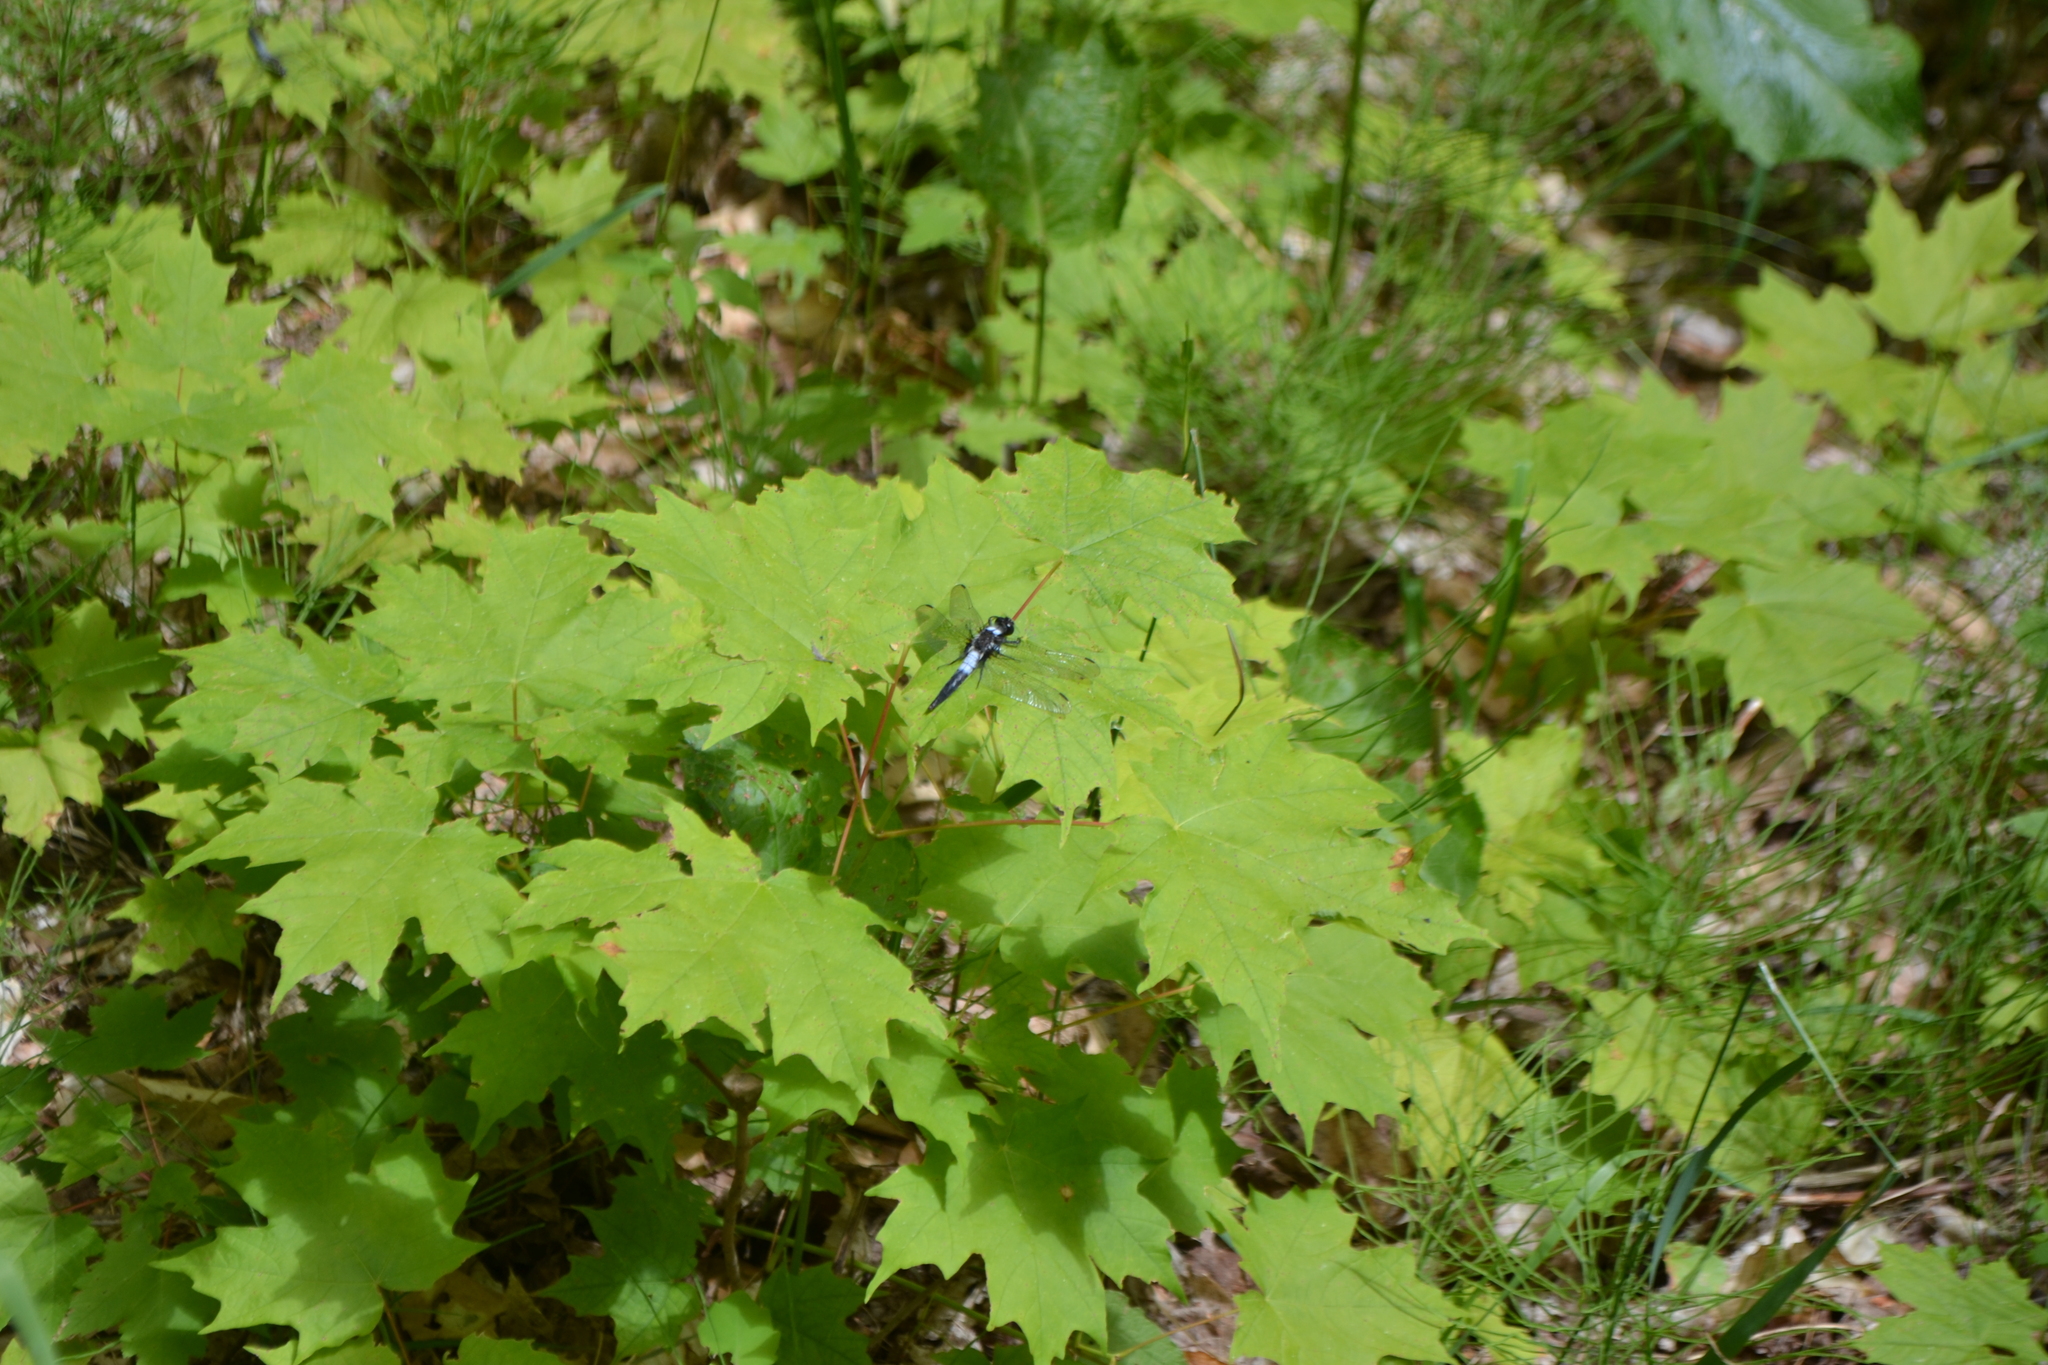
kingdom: Animalia
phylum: Arthropoda
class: Insecta
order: Odonata
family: Libellulidae
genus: Ladona
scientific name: Ladona julia
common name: Chalk-fronted corporal
